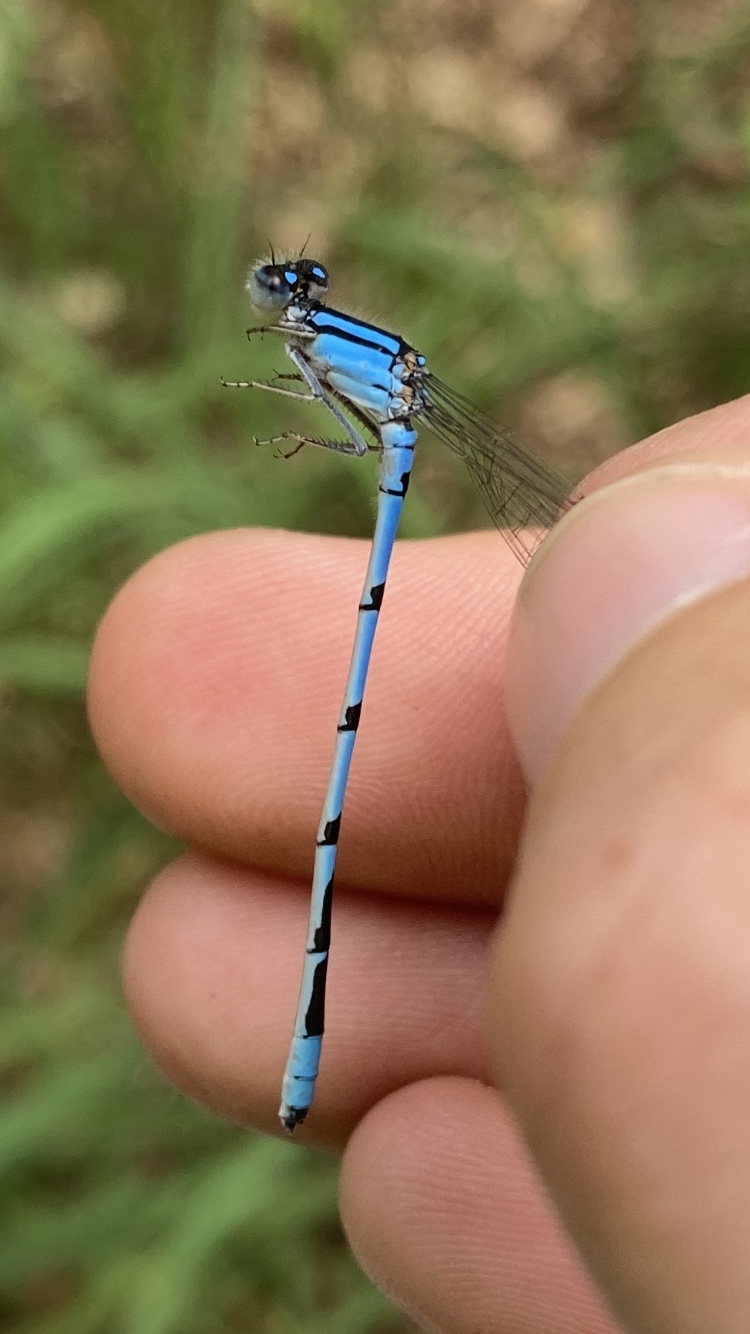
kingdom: Animalia
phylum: Arthropoda
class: Insecta
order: Odonata
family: Coenagrionidae
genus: Enallagma
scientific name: Enallagma civile
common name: Damselfly
